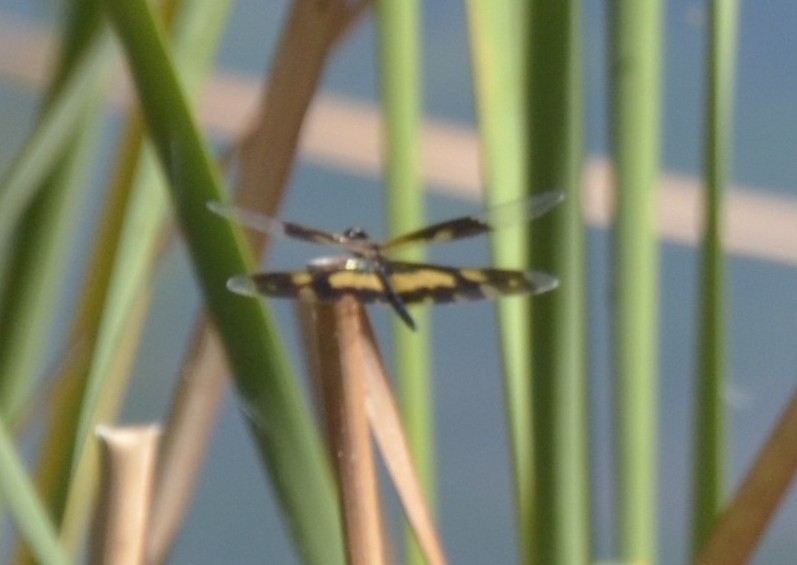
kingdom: Animalia
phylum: Arthropoda
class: Insecta
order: Odonata
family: Libellulidae
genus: Rhyothemis
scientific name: Rhyothemis variegata
